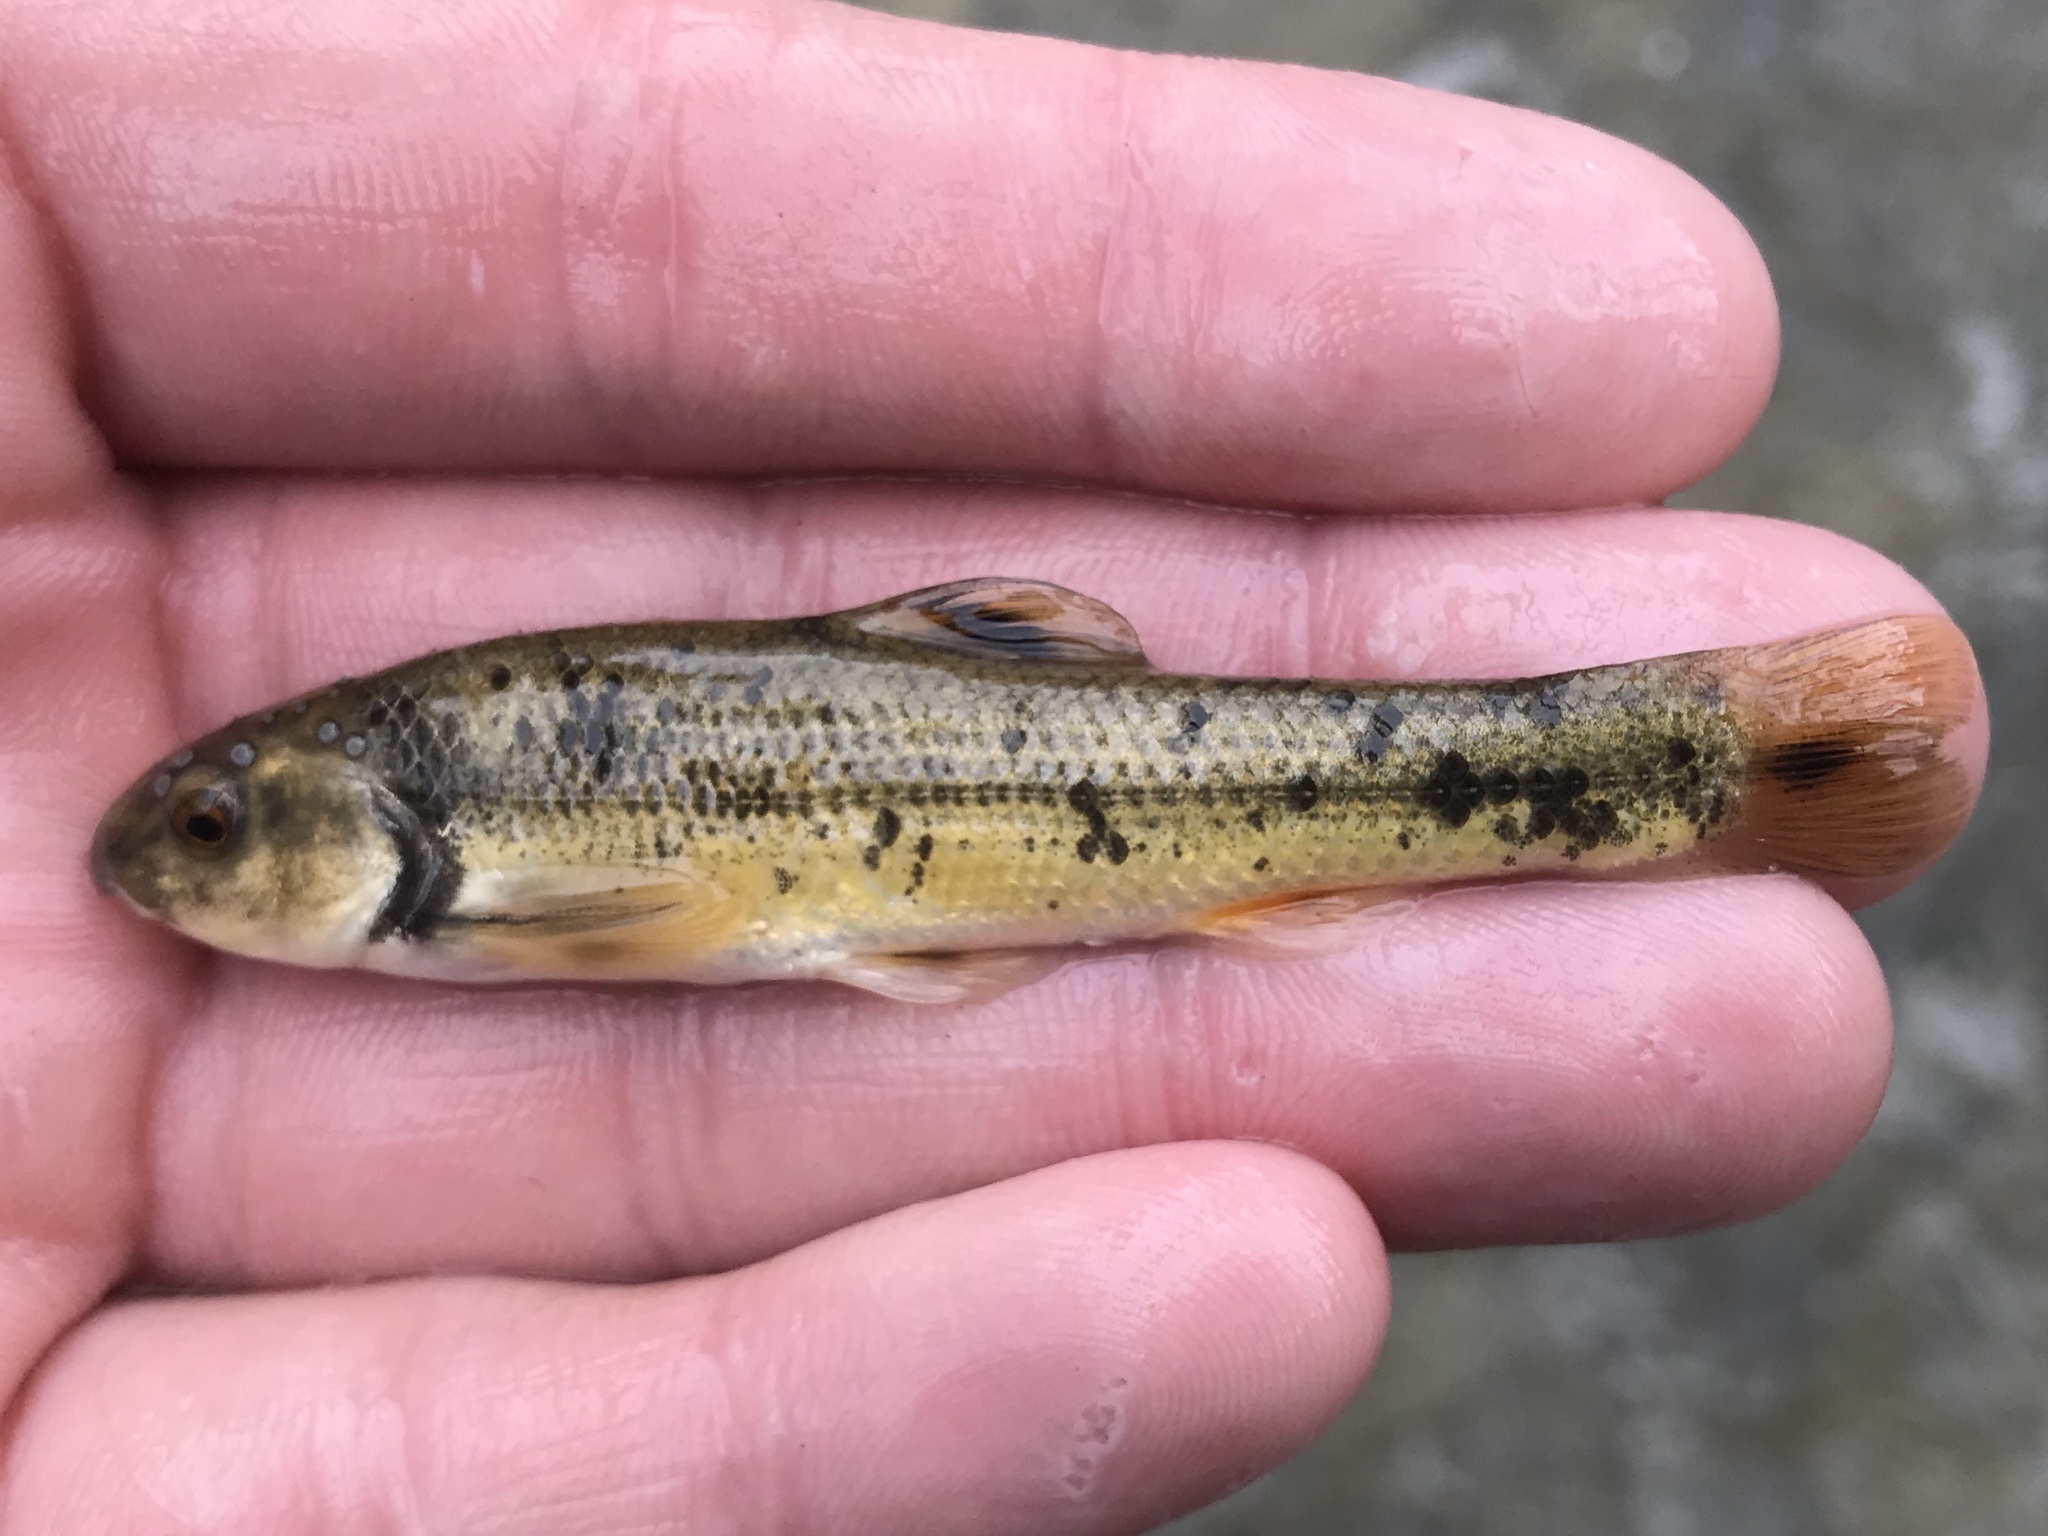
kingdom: Animalia
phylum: Chordata
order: Cypriniformes
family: Cyprinidae
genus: Campostoma
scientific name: Campostoma anomalum
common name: Central stoneroller
